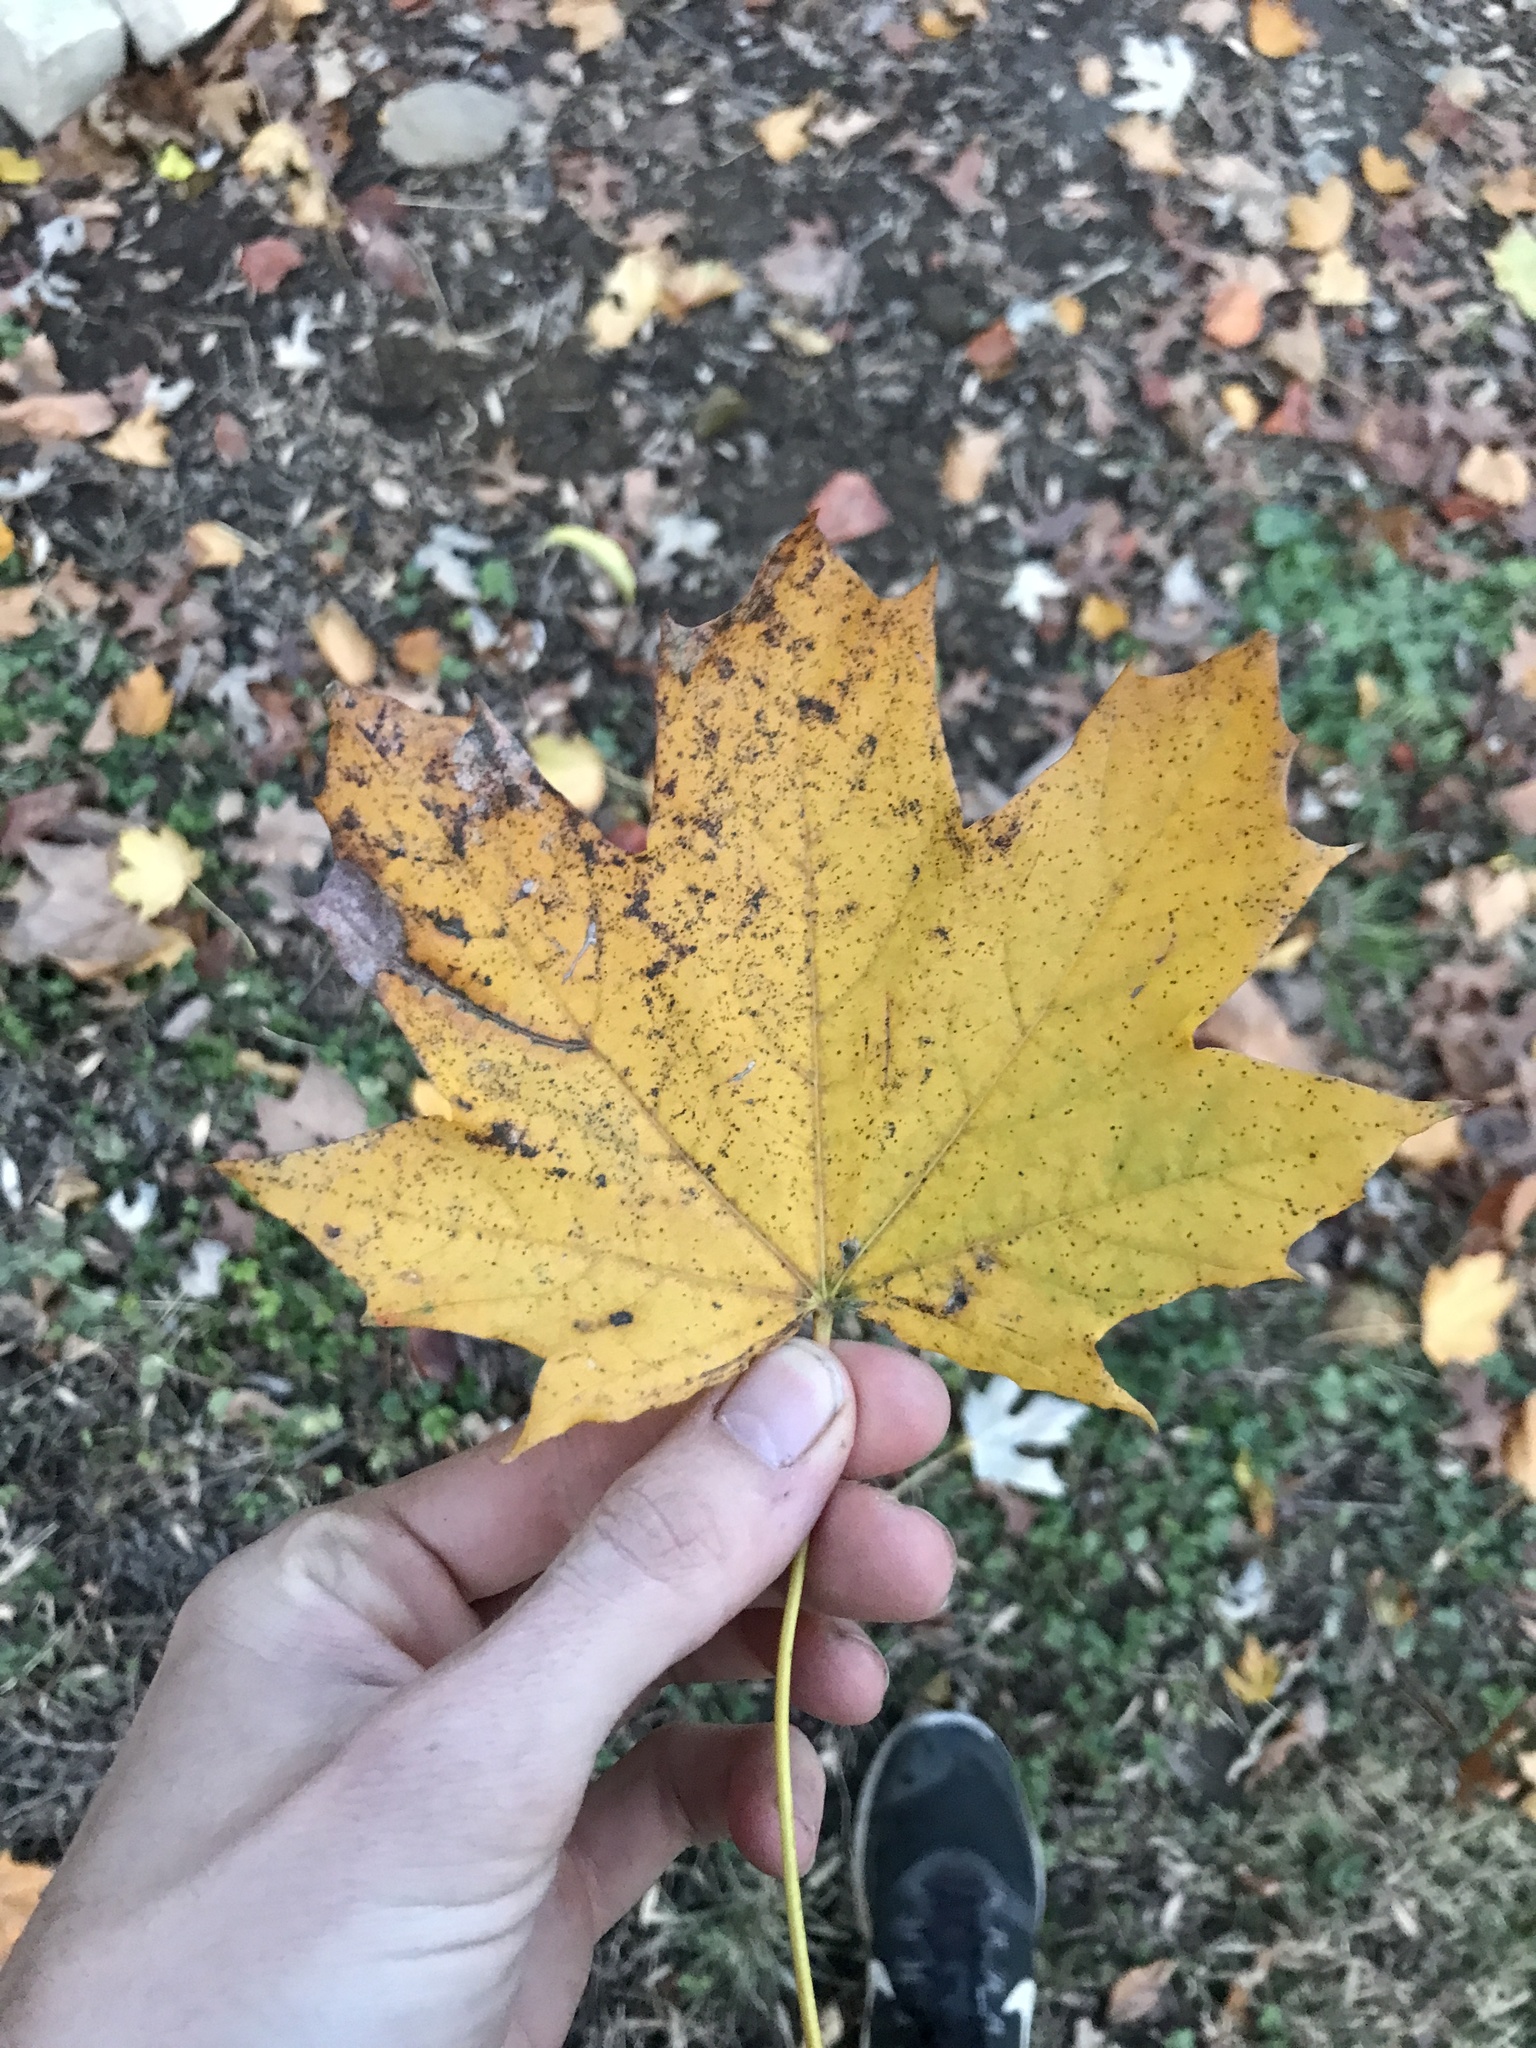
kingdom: Plantae
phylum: Tracheophyta
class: Magnoliopsida
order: Sapindales
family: Sapindaceae
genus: Acer
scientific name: Acer platanoides
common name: Norway maple
